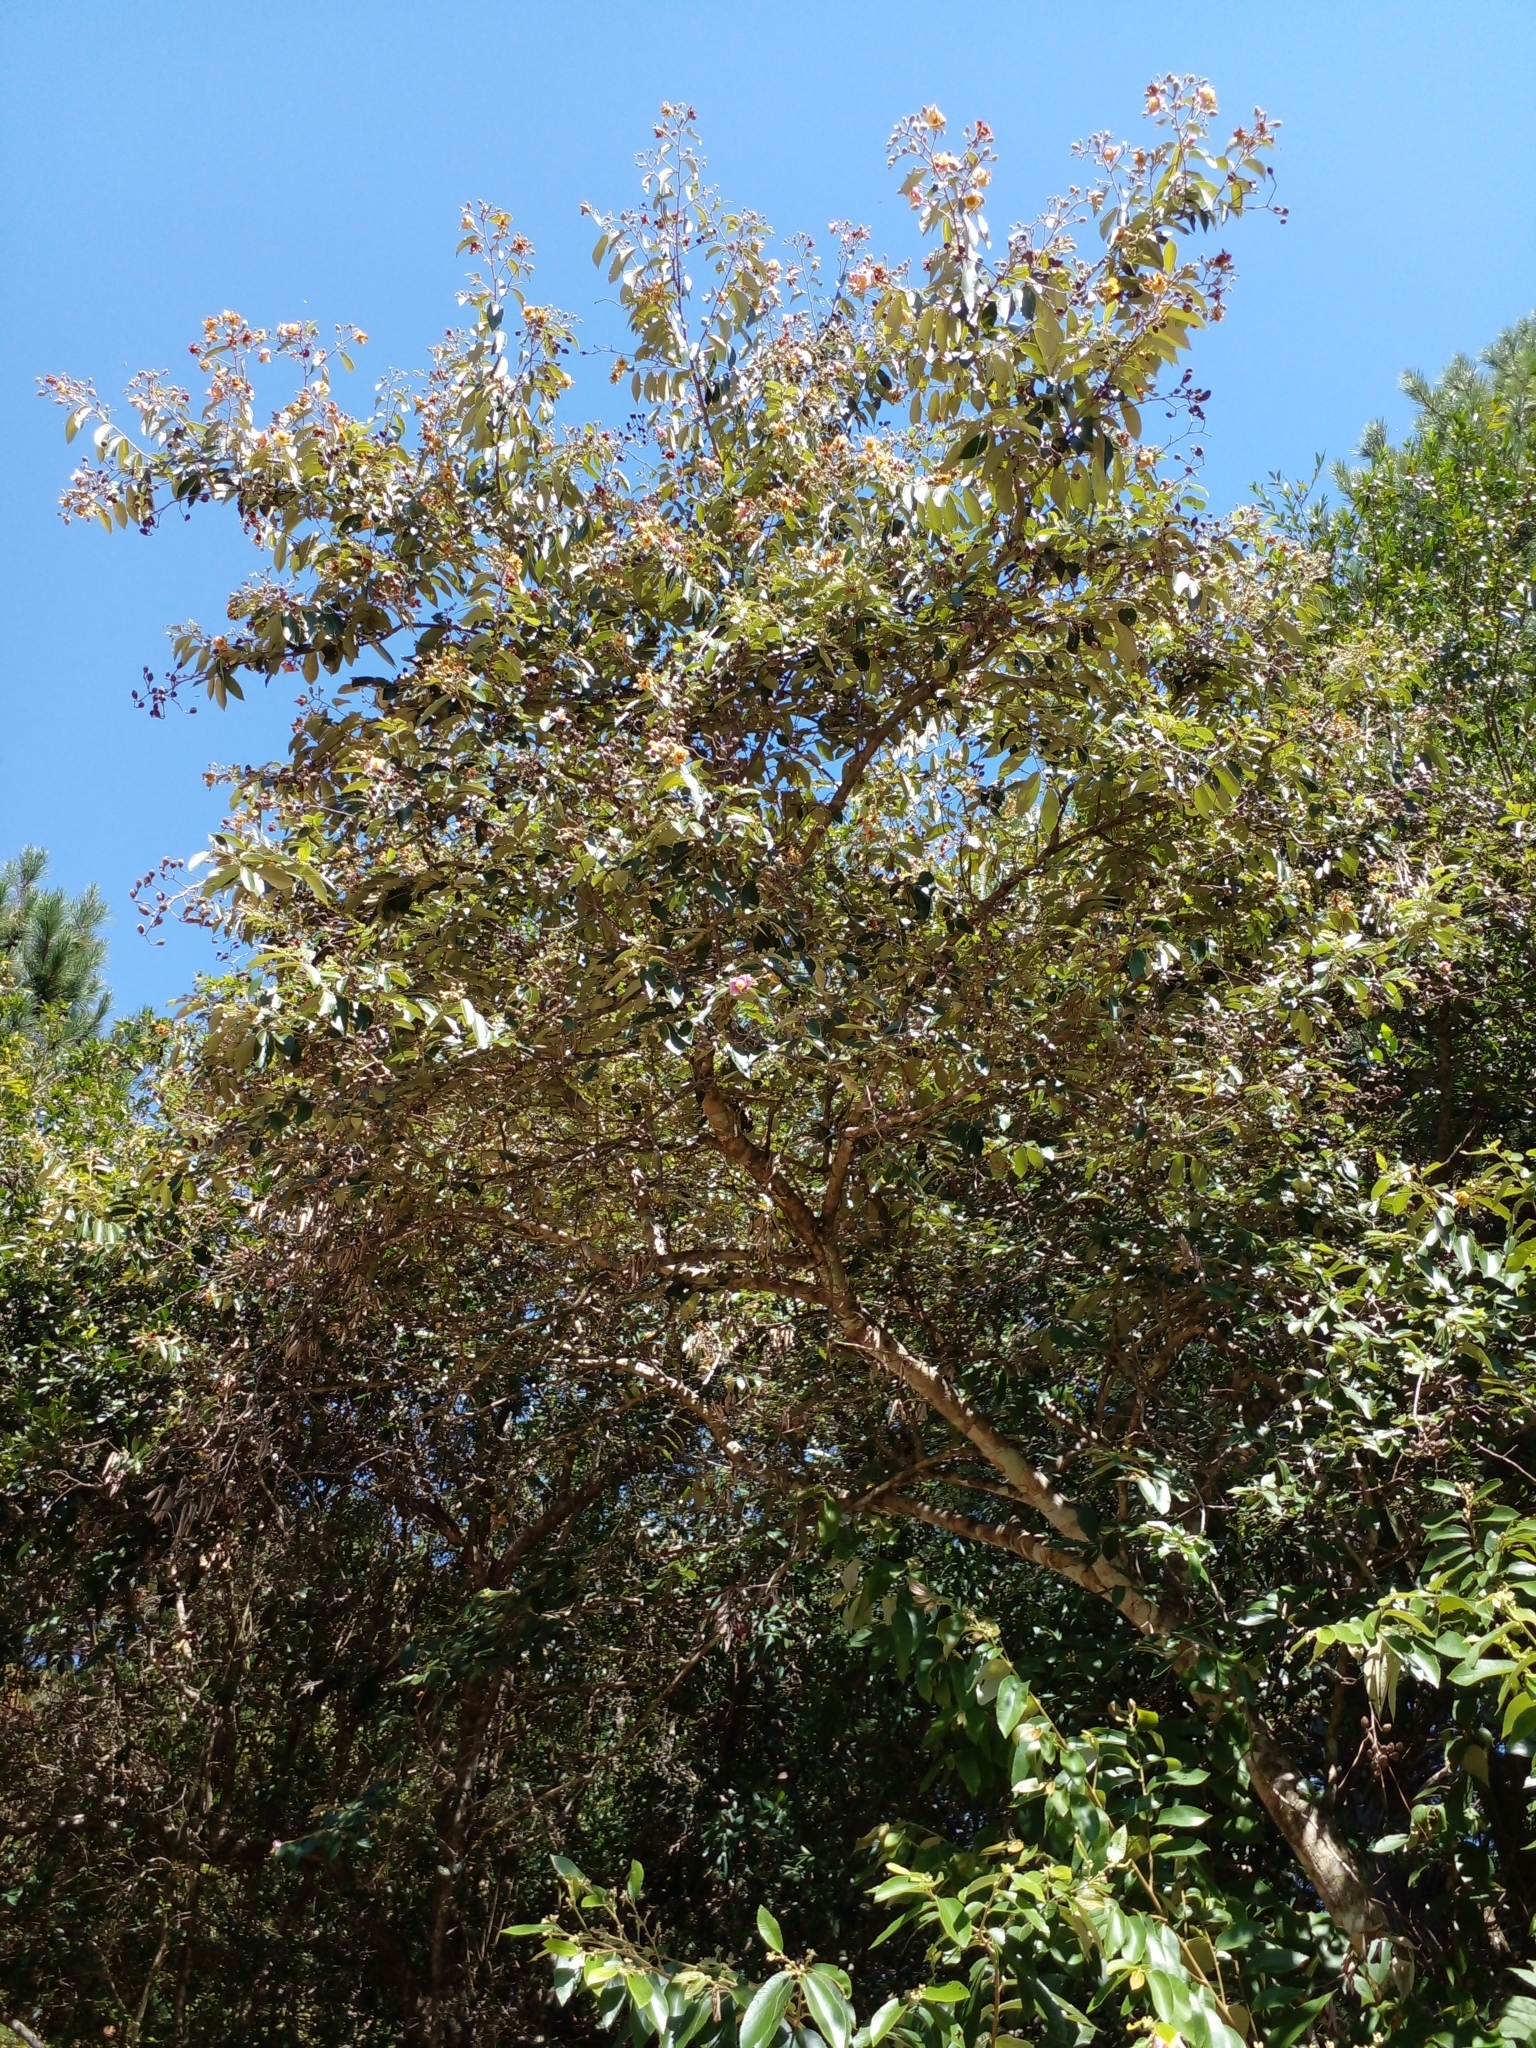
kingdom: Plantae
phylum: Tracheophyta
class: Magnoliopsida
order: Malvales
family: Malvaceae
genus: Luehea
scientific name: Luehea divaricata
